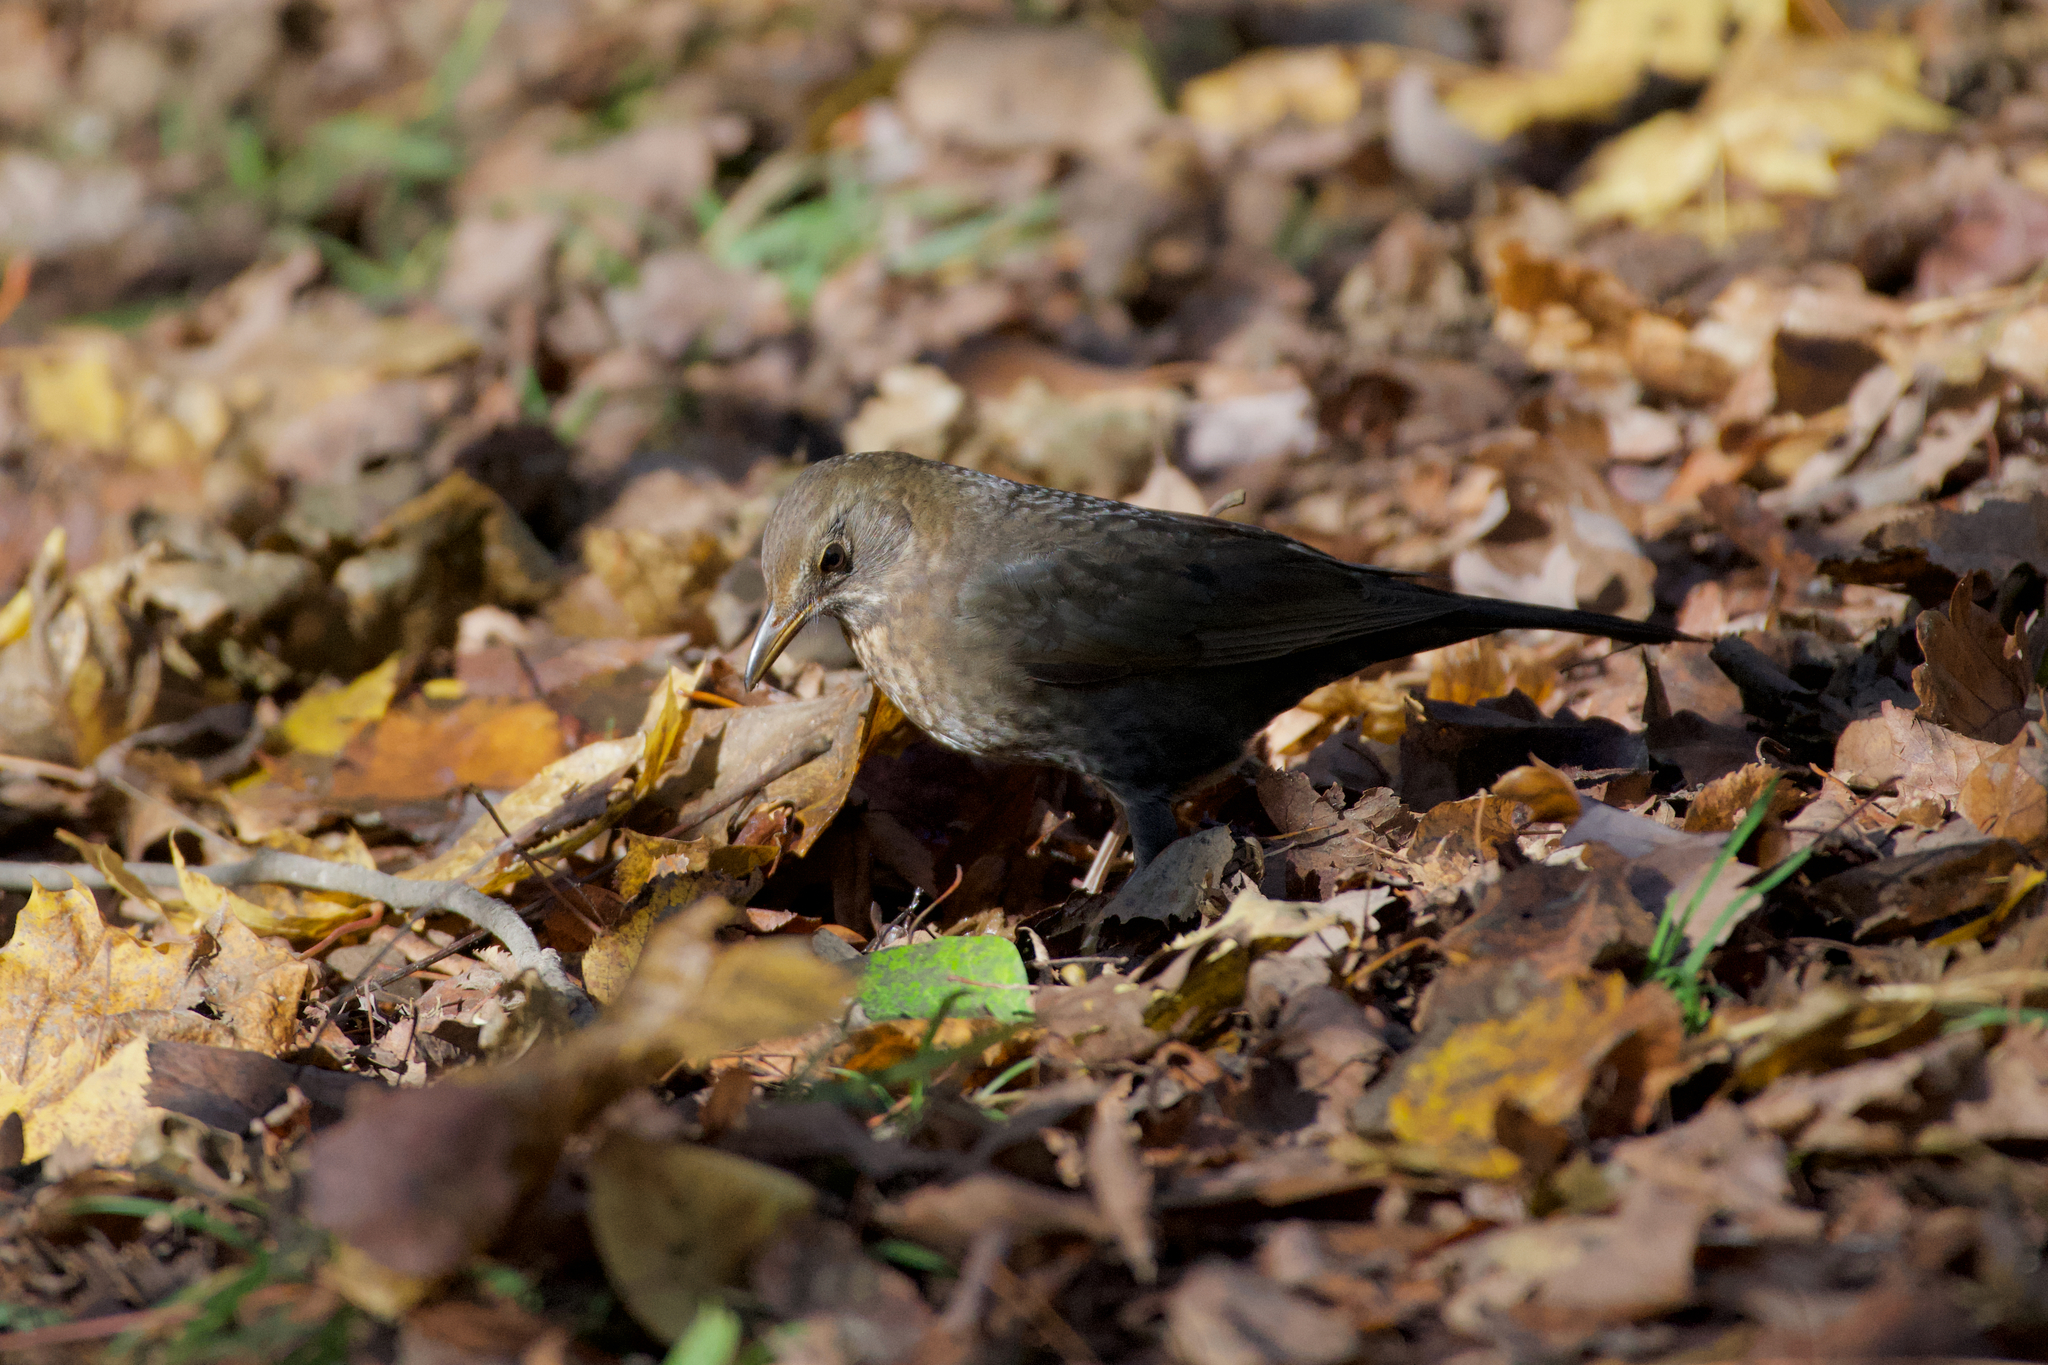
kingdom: Animalia
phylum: Chordata
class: Aves
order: Passeriformes
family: Turdidae
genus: Turdus
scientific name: Turdus merula
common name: Common blackbird
